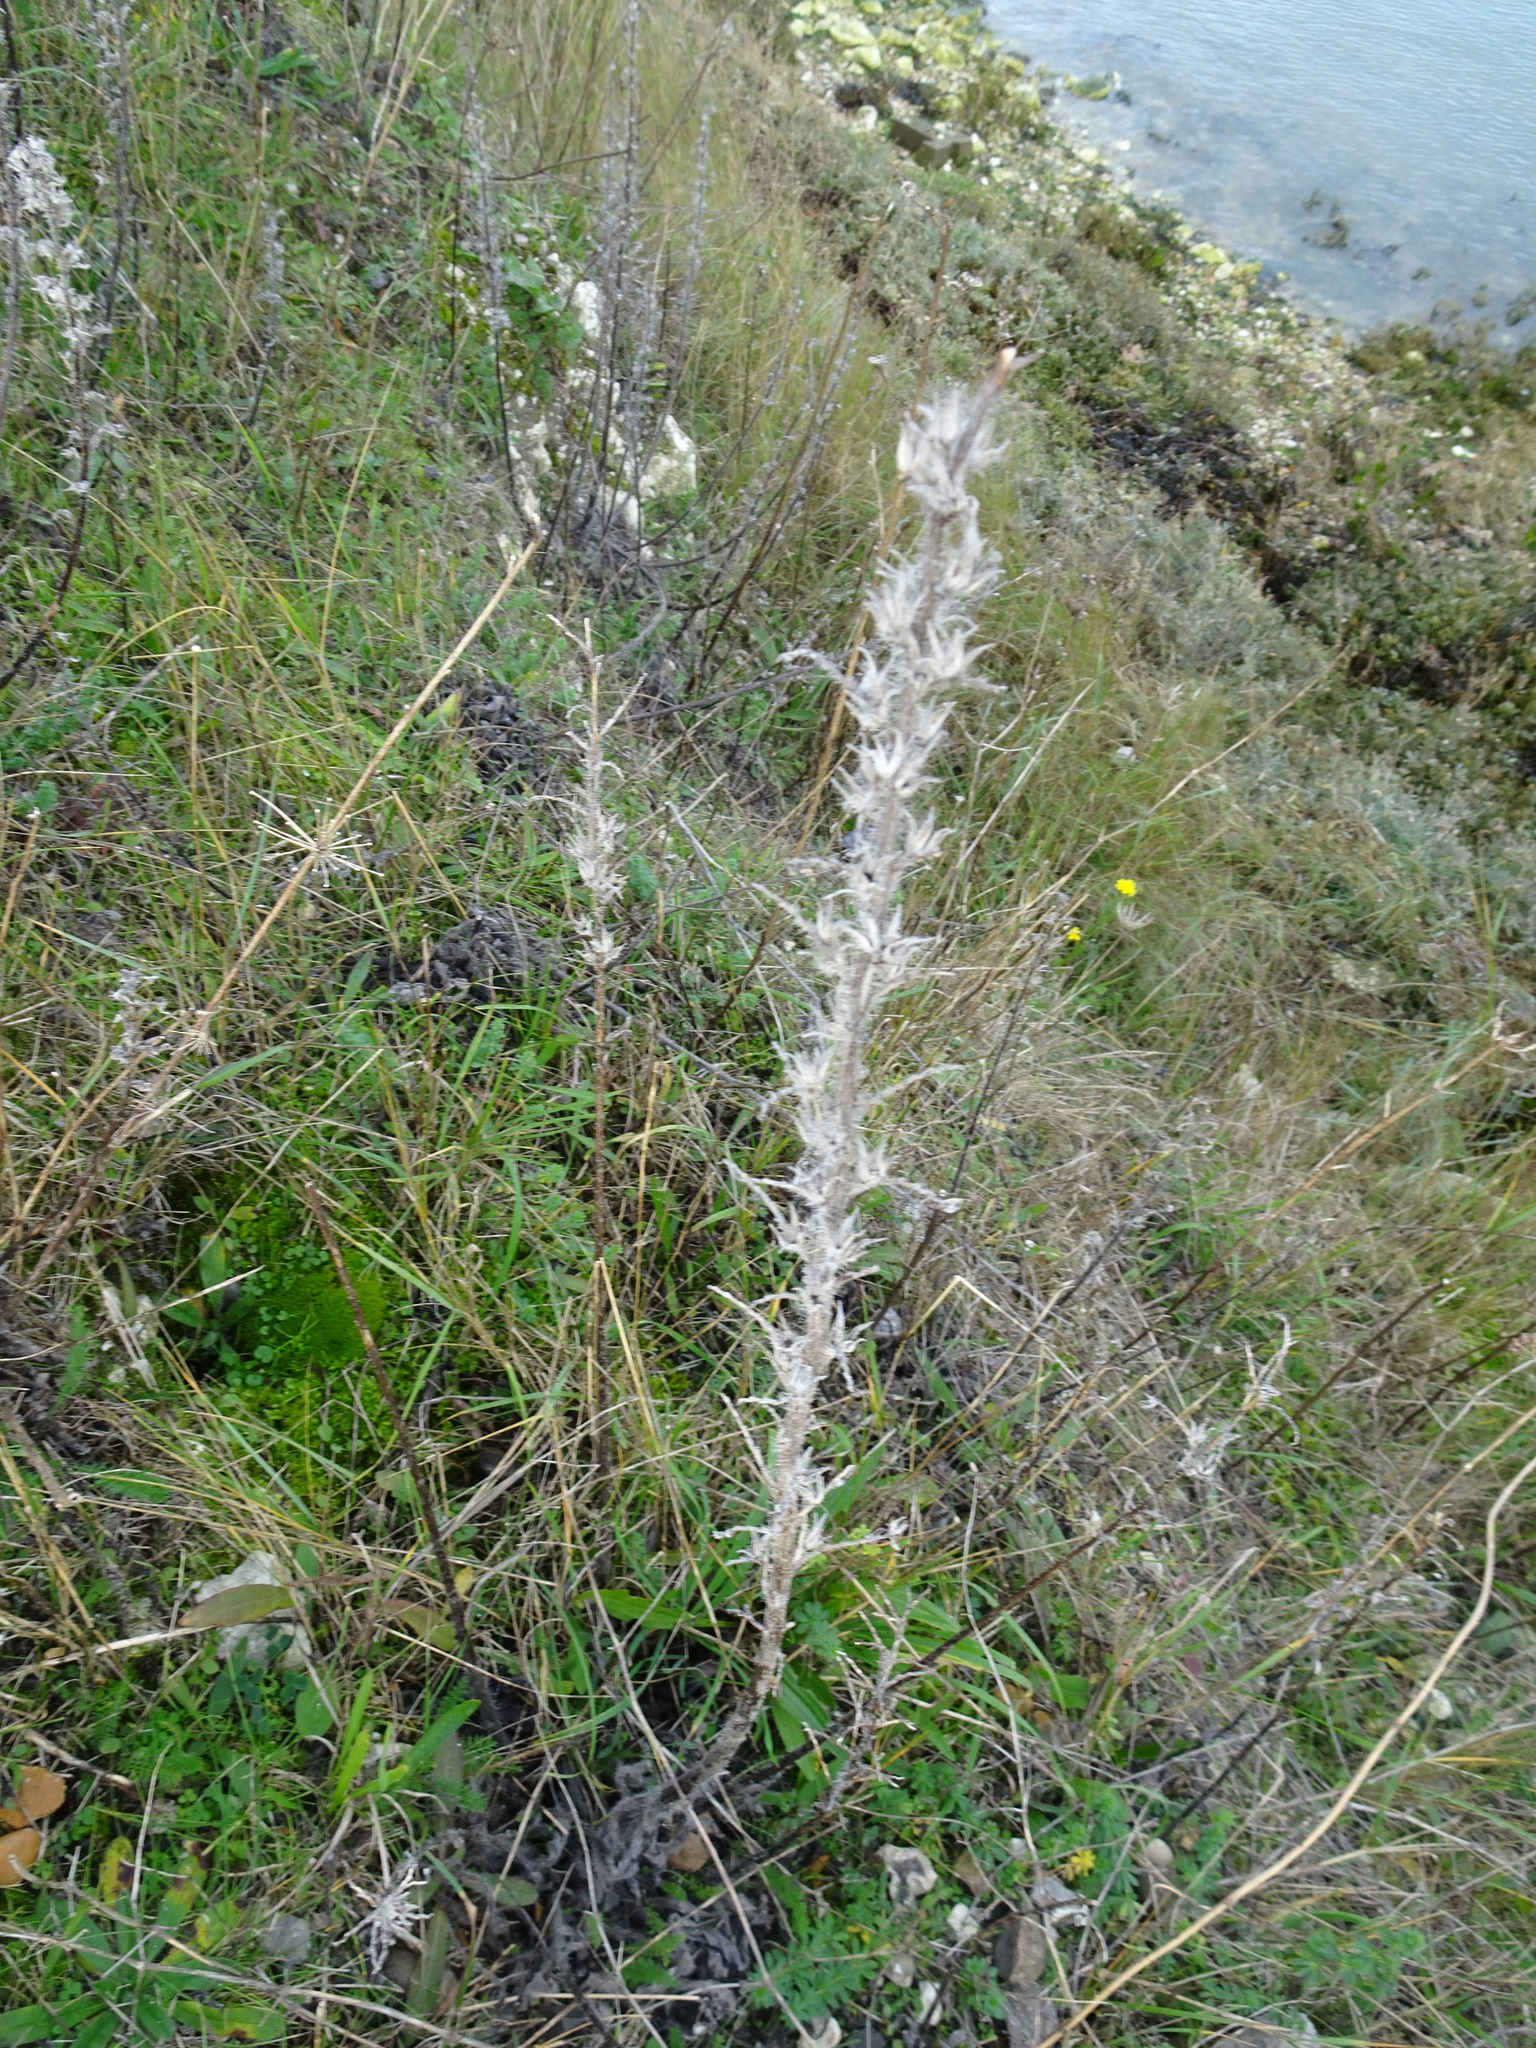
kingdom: Plantae
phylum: Tracheophyta
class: Magnoliopsida
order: Boraginales
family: Boraginaceae
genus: Echium
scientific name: Echium vulgare
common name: Common viper's bugloss
